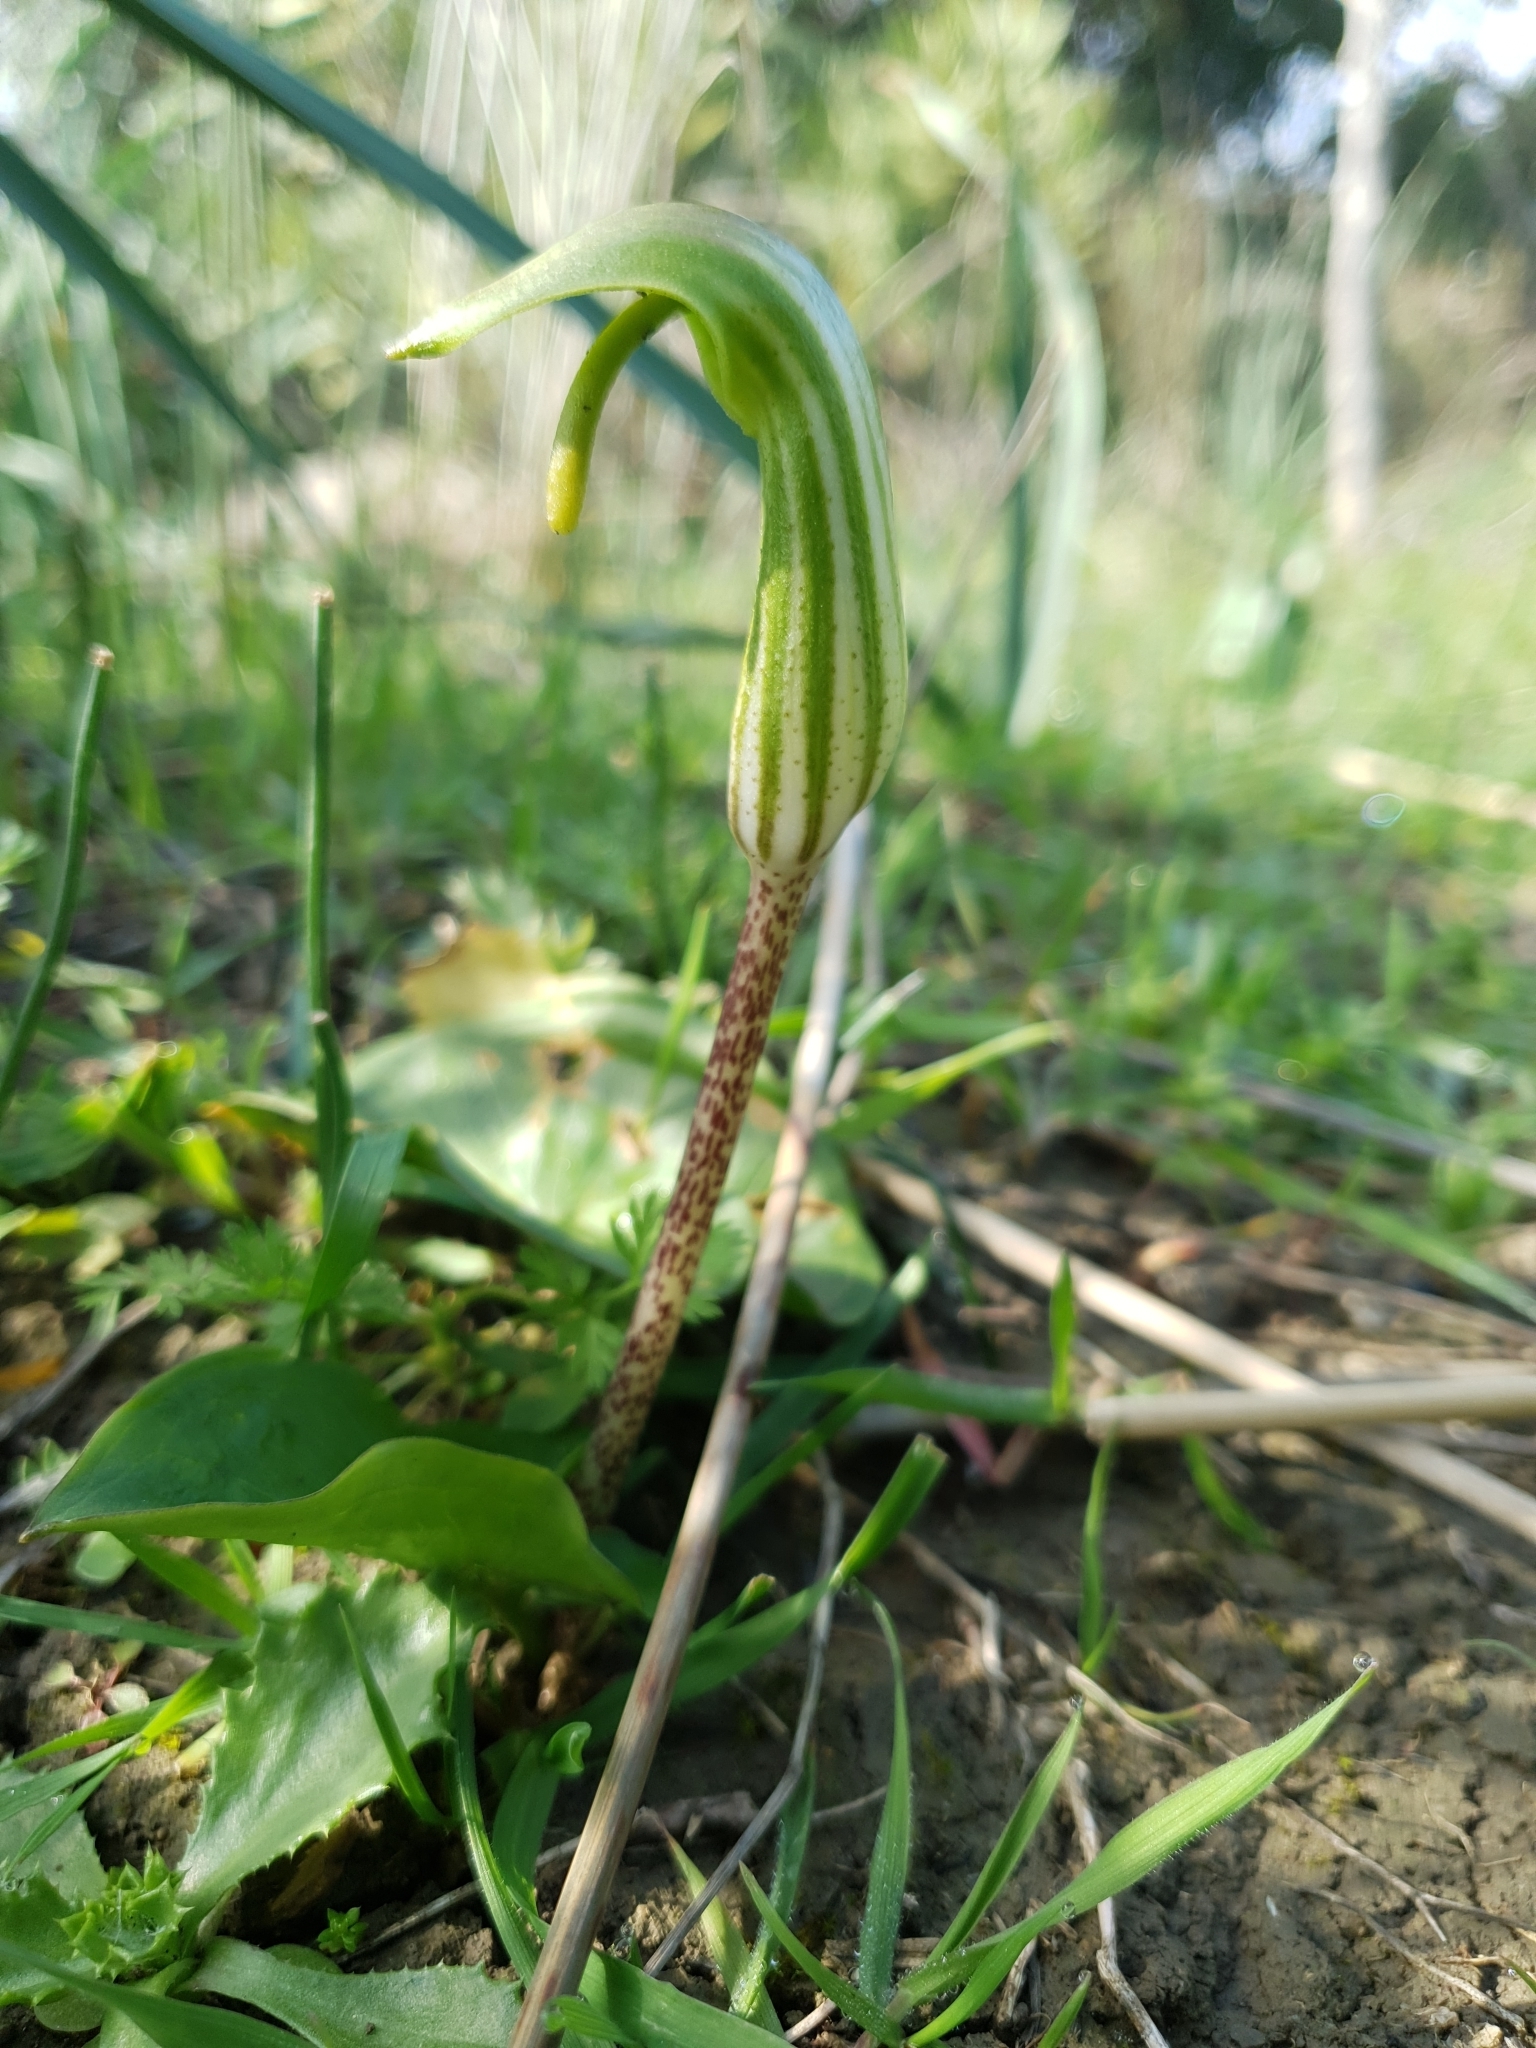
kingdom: Plantae
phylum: Tracheophyta
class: Liliopsida
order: Alismatales
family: Araceae
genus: Arisarum
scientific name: Arisarum vulgare
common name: Common arisarum
